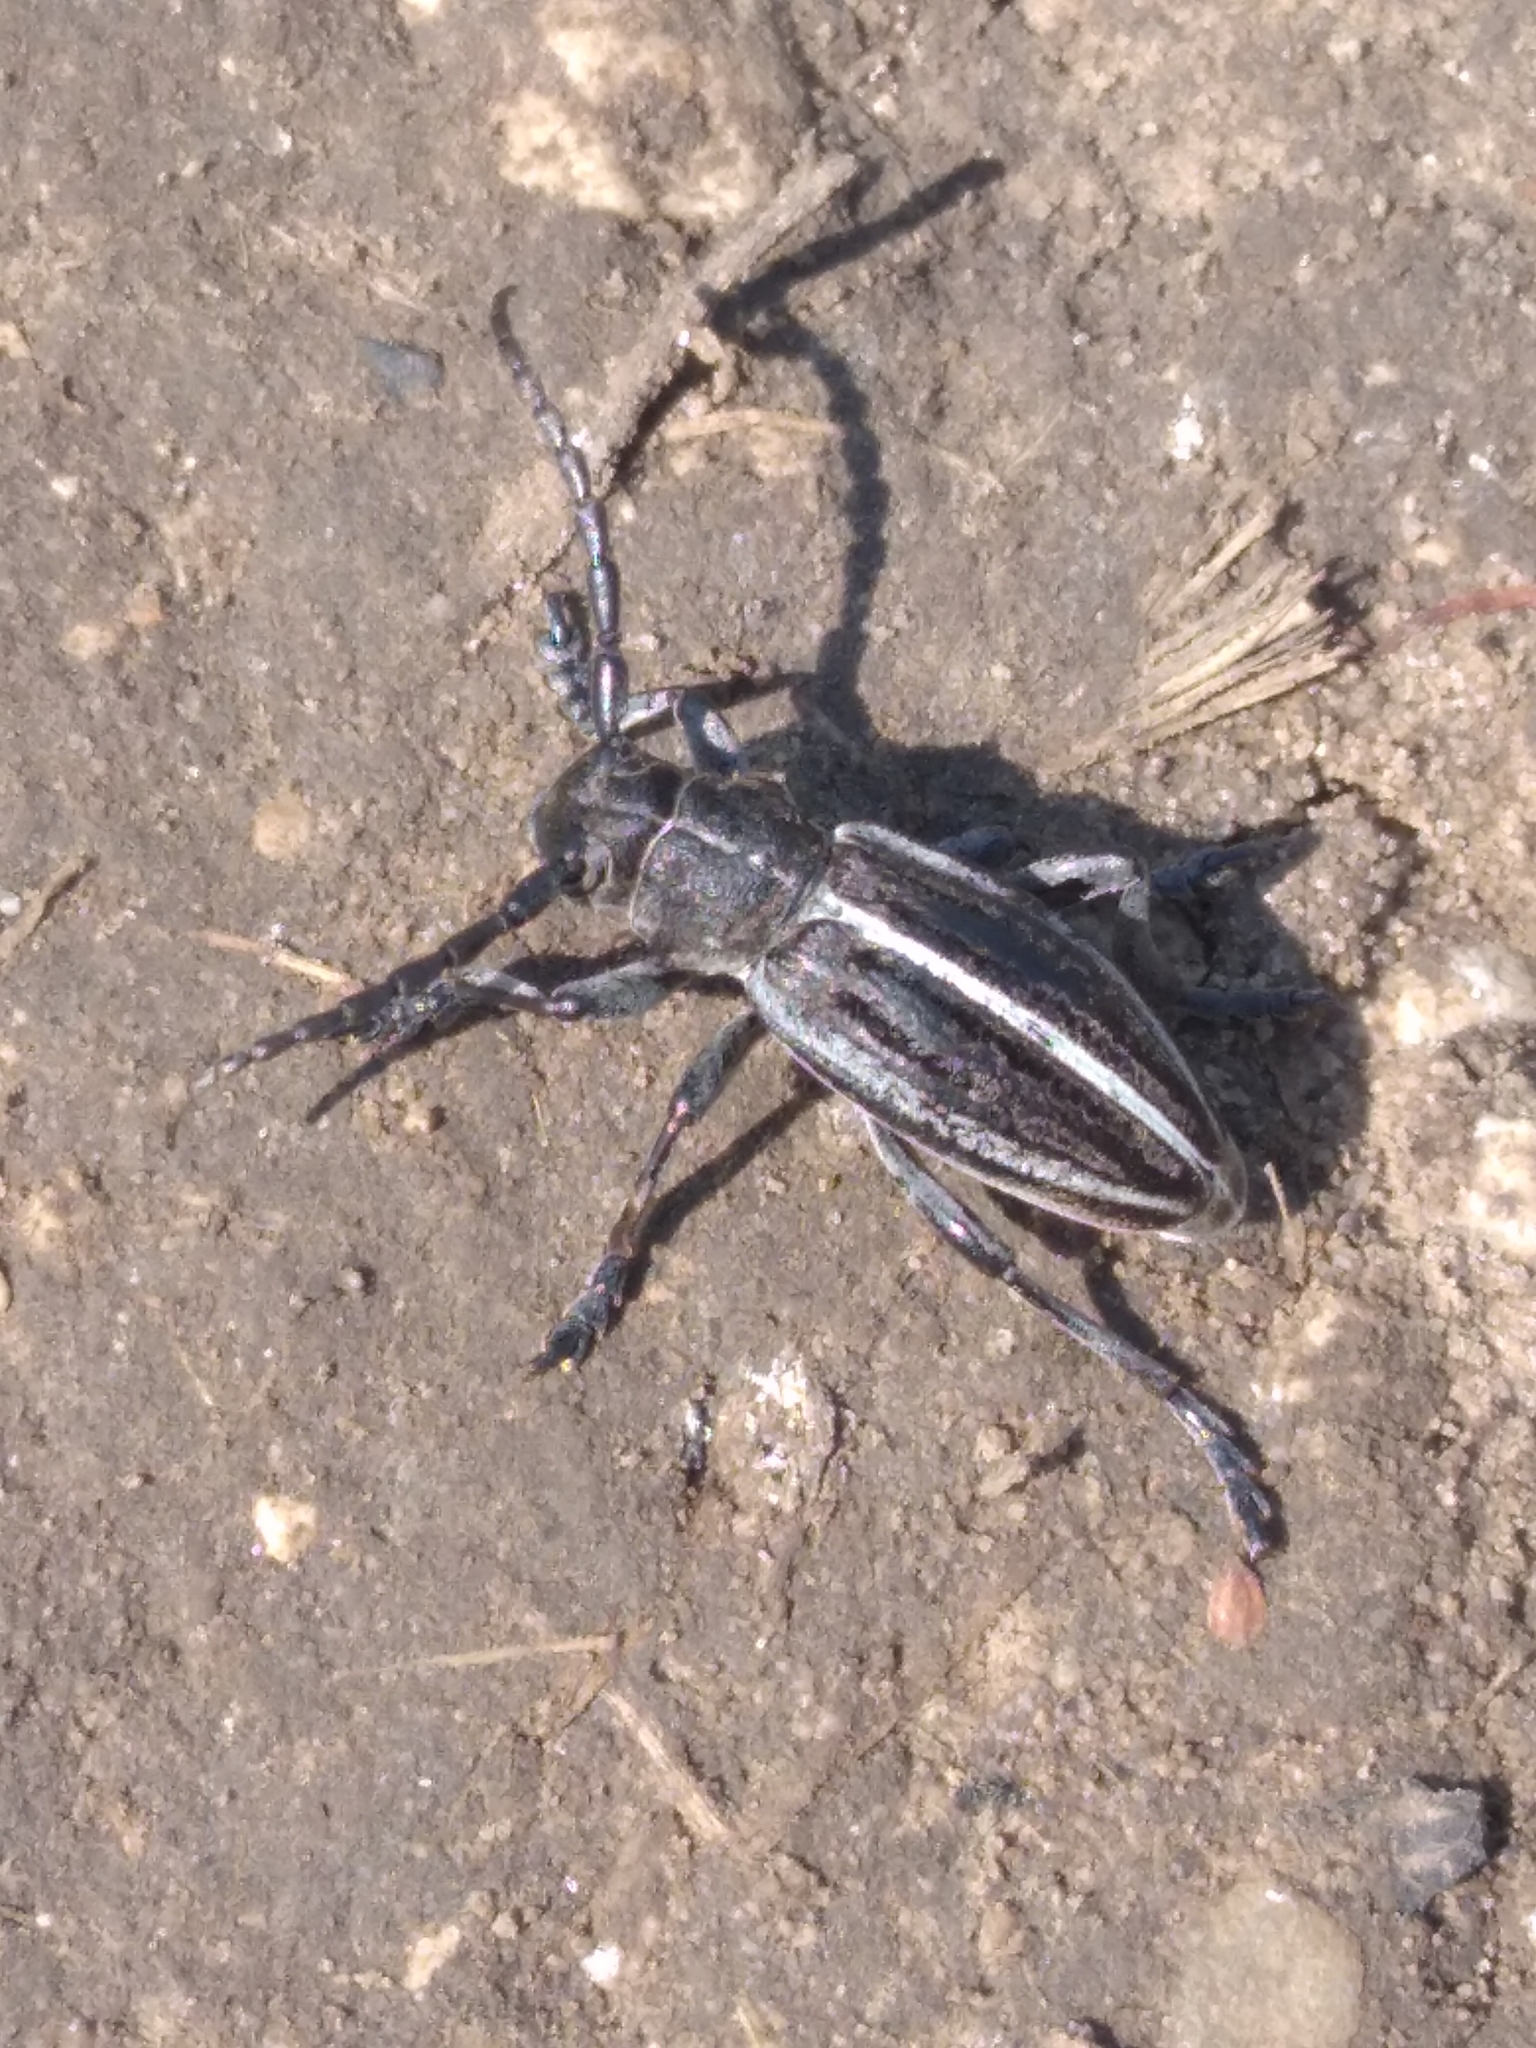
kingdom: Animalia
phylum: Arthropoda
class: Insecta
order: Coleoptera
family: Cerambycidae
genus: Dorcadion
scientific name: Dorcadion holosericeum
